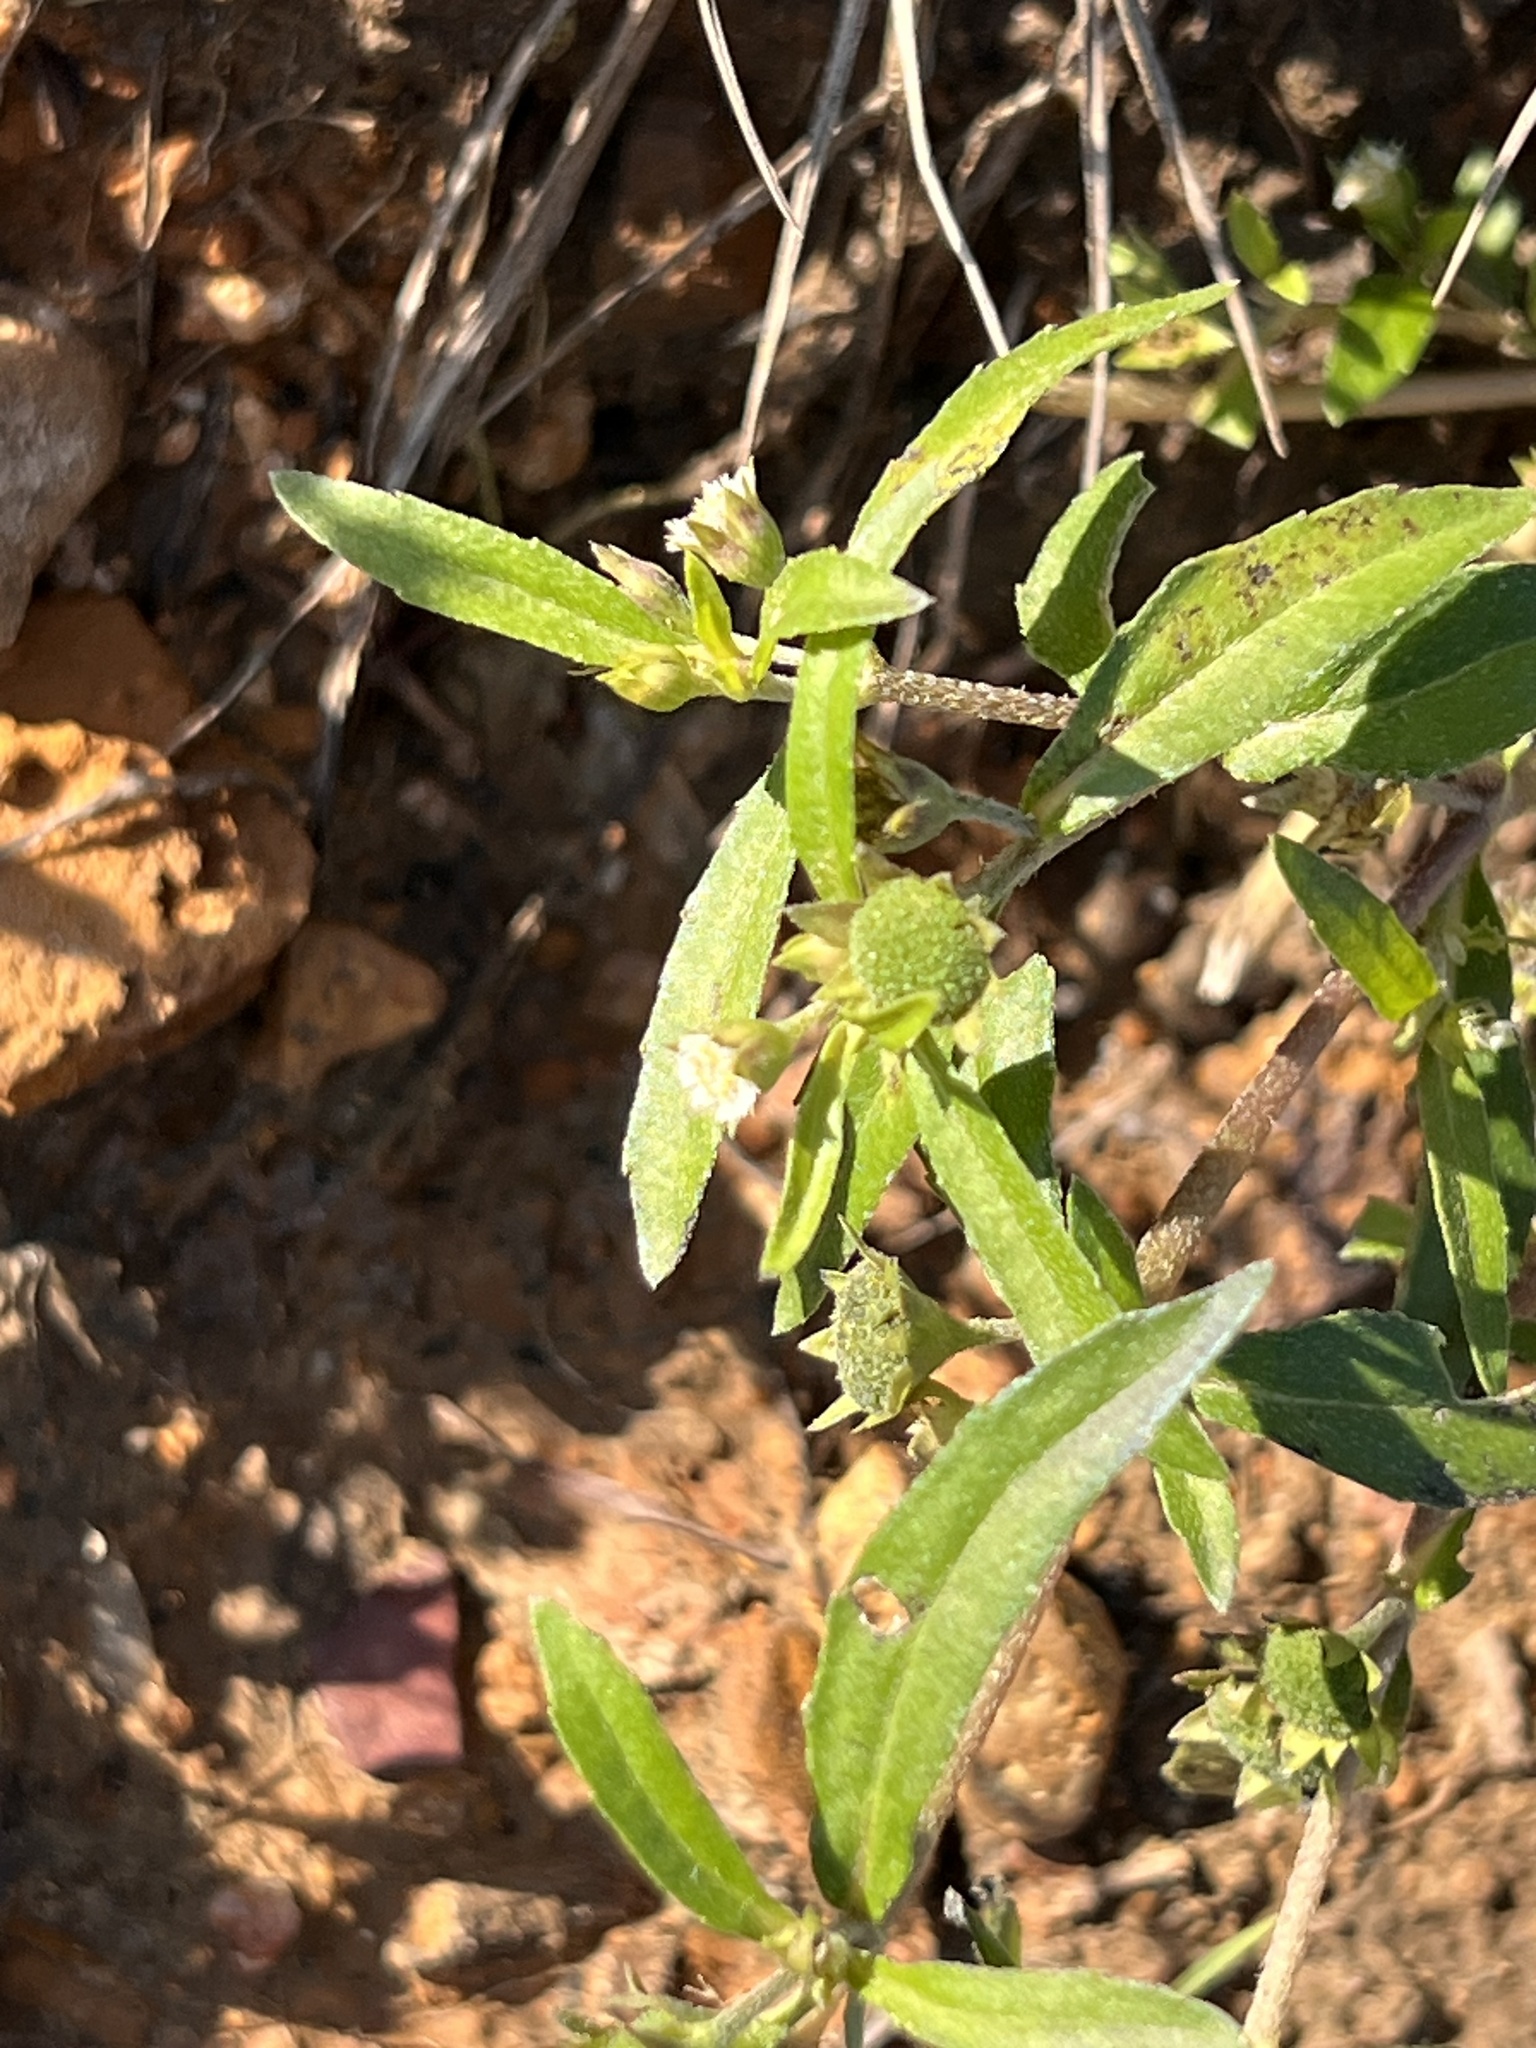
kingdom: Plantae
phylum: Tracheophyta
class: Magnoliopsida
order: Asterales
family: Asteraceae
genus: Eclipta
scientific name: Eclipta prostrata
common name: False daisy
